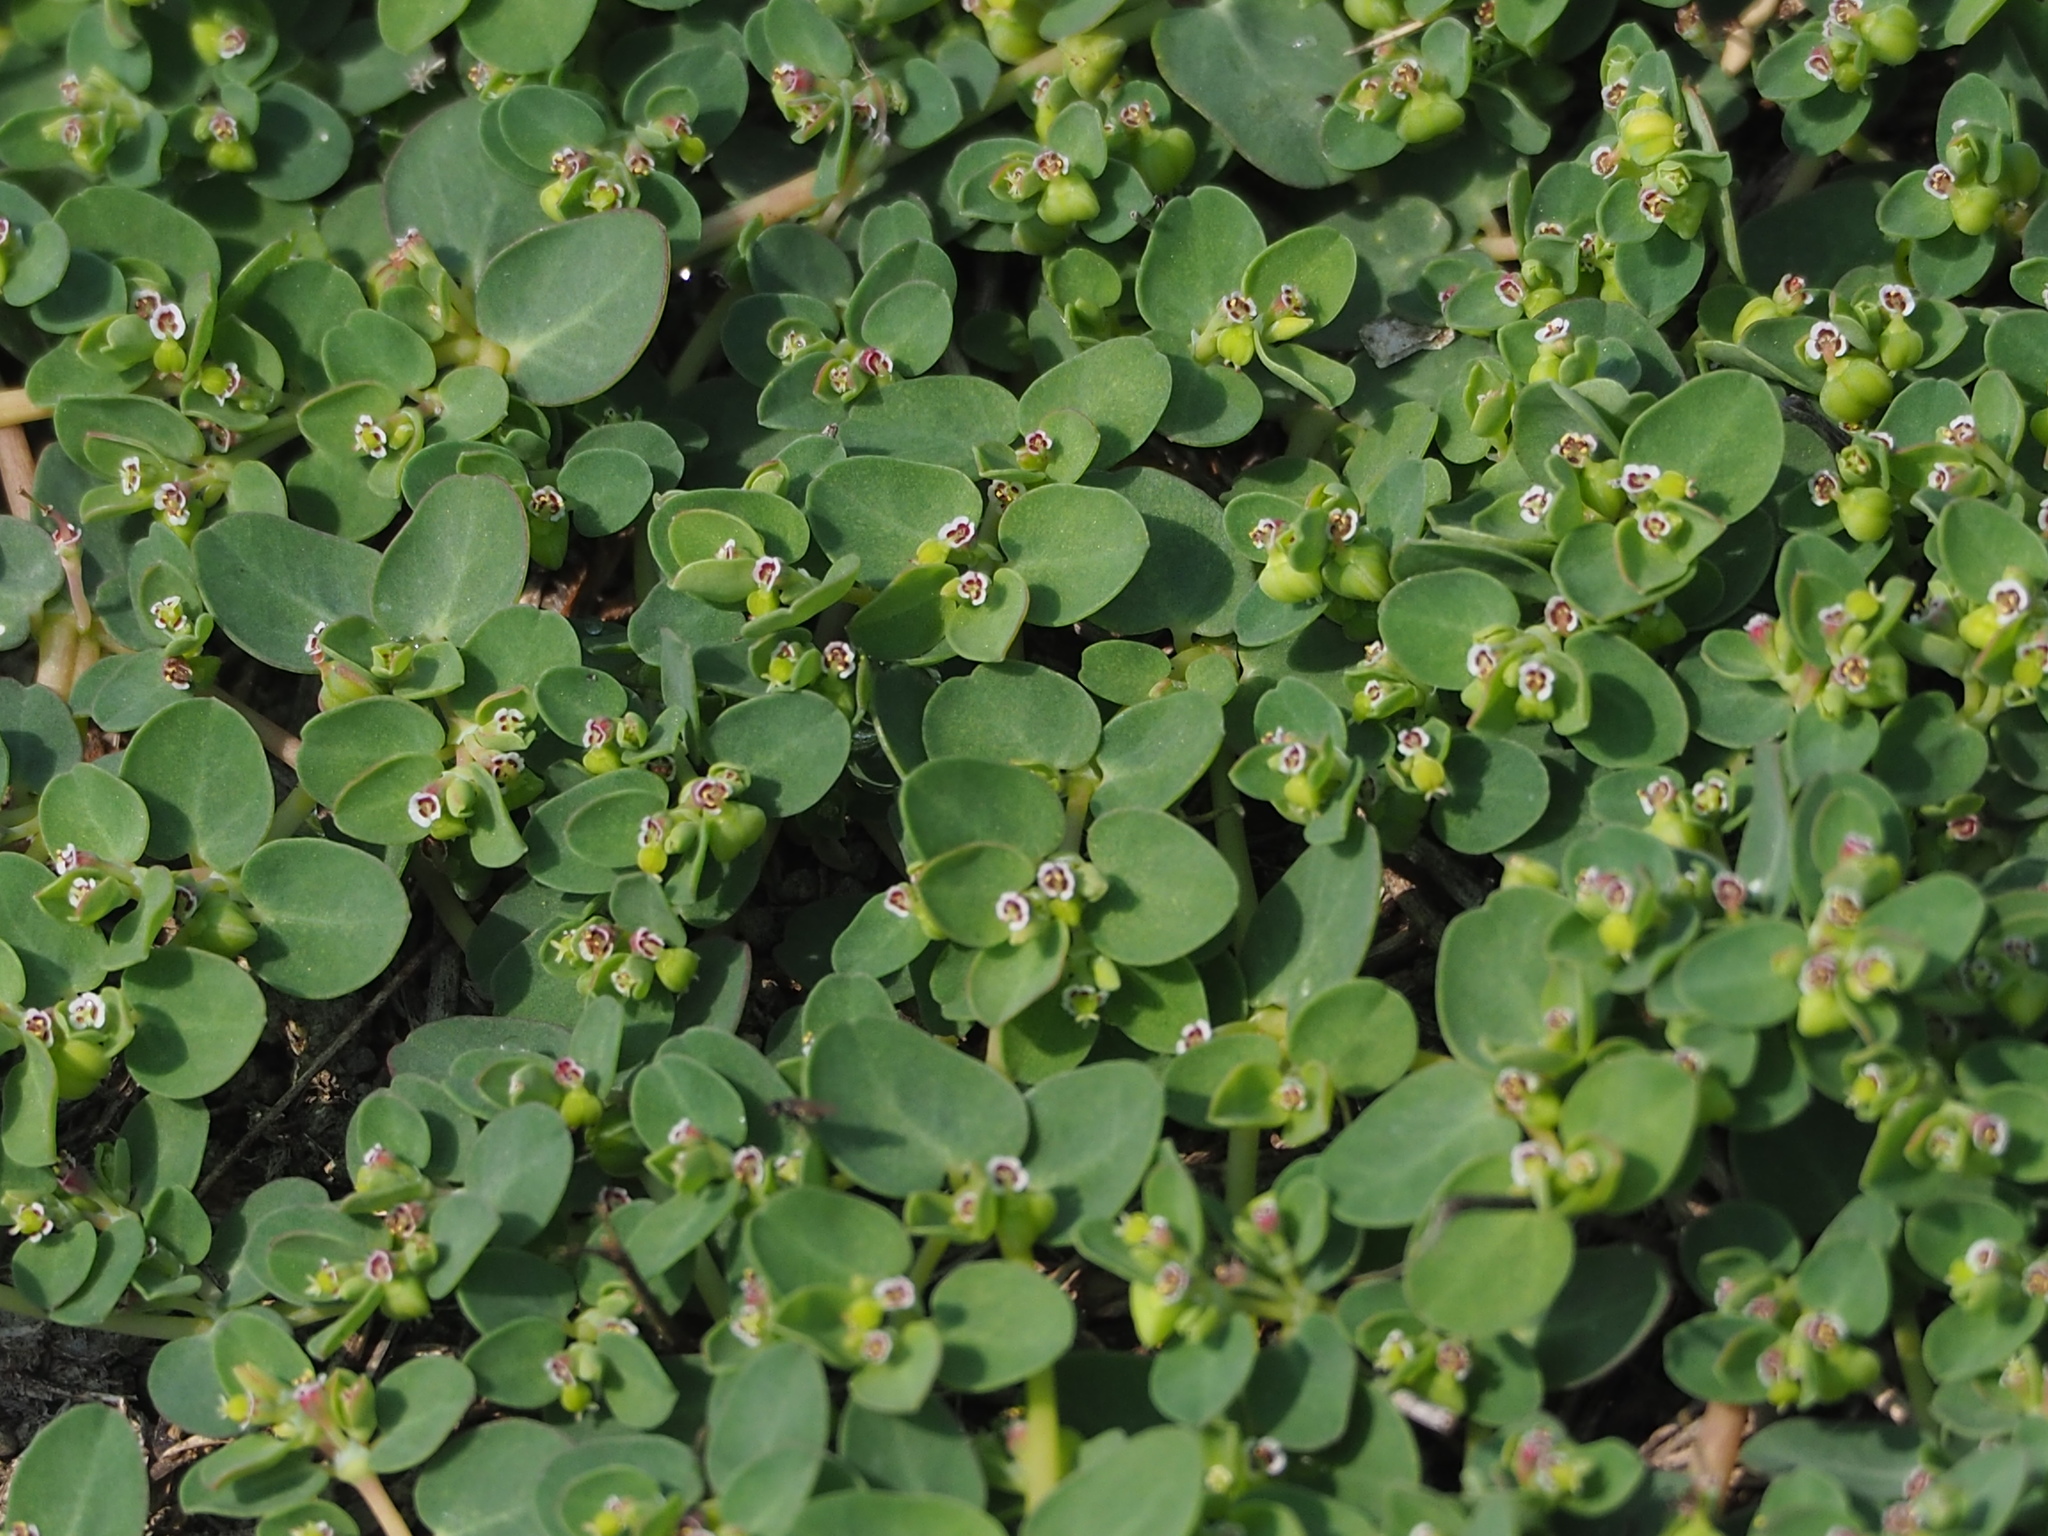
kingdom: Plantae
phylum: Tracheophyta
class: Magnoliopsida
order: Malpighiales
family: Euphorbiaceae
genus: Euphorbia
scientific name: Euphorbia serpens
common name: Matted sandmat
